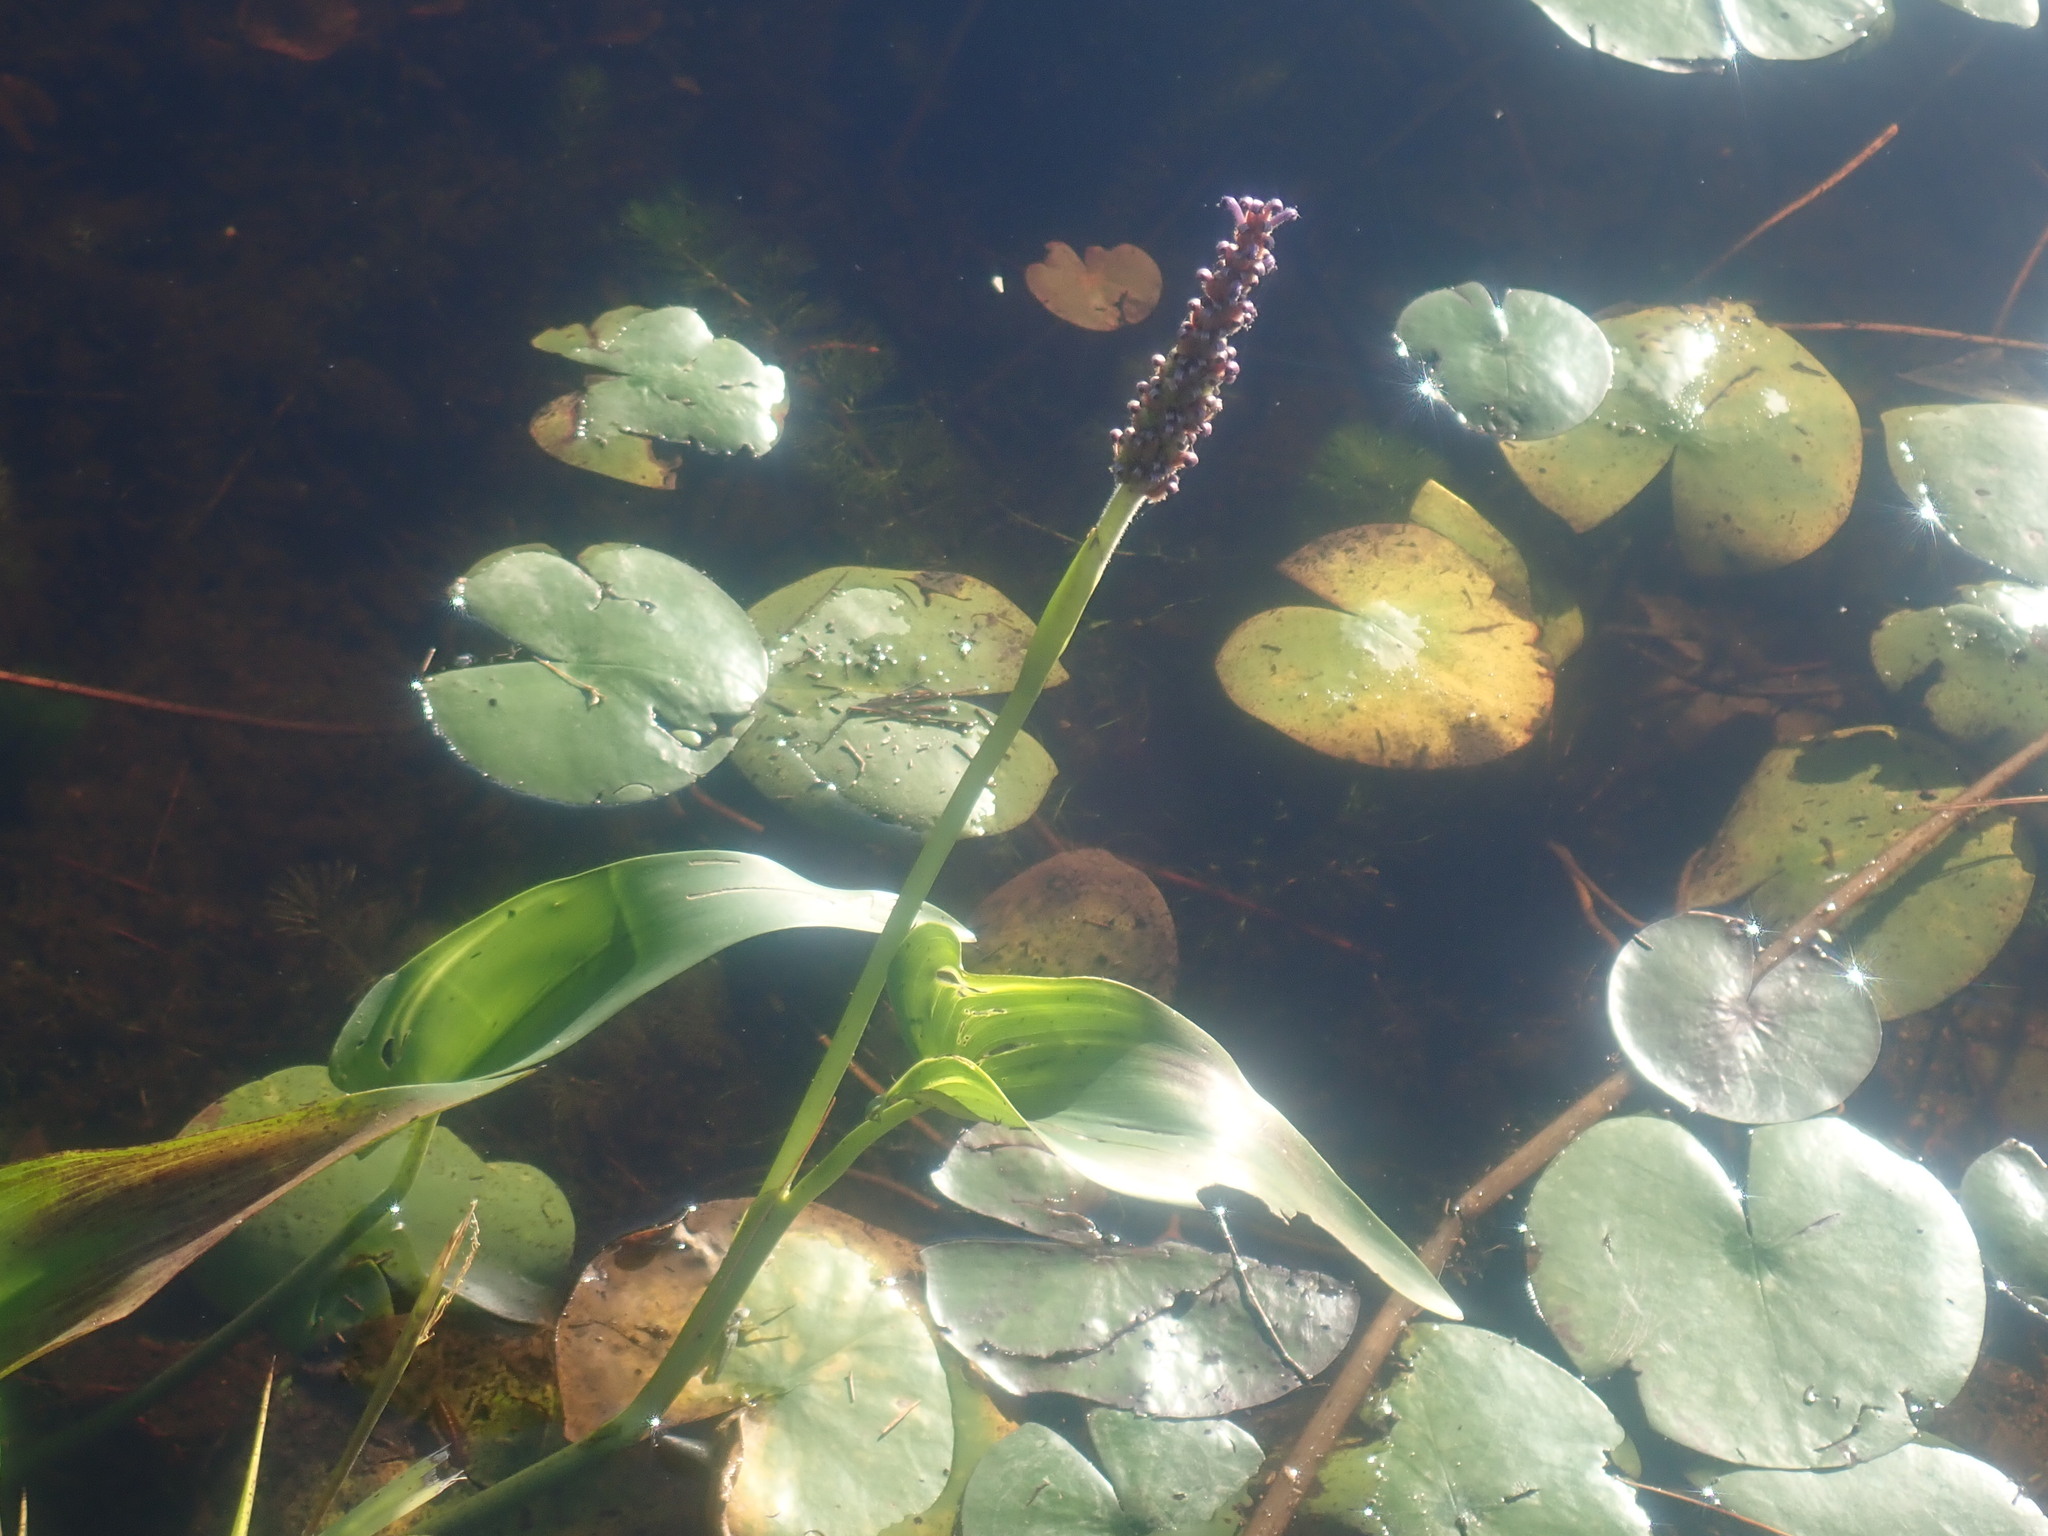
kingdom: Plantae
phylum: Tracheophyta
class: Liliopsida
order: Commelinales
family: Pontederiaceae
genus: Pontederia
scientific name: Pontederia cordata
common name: Pickerelweed
